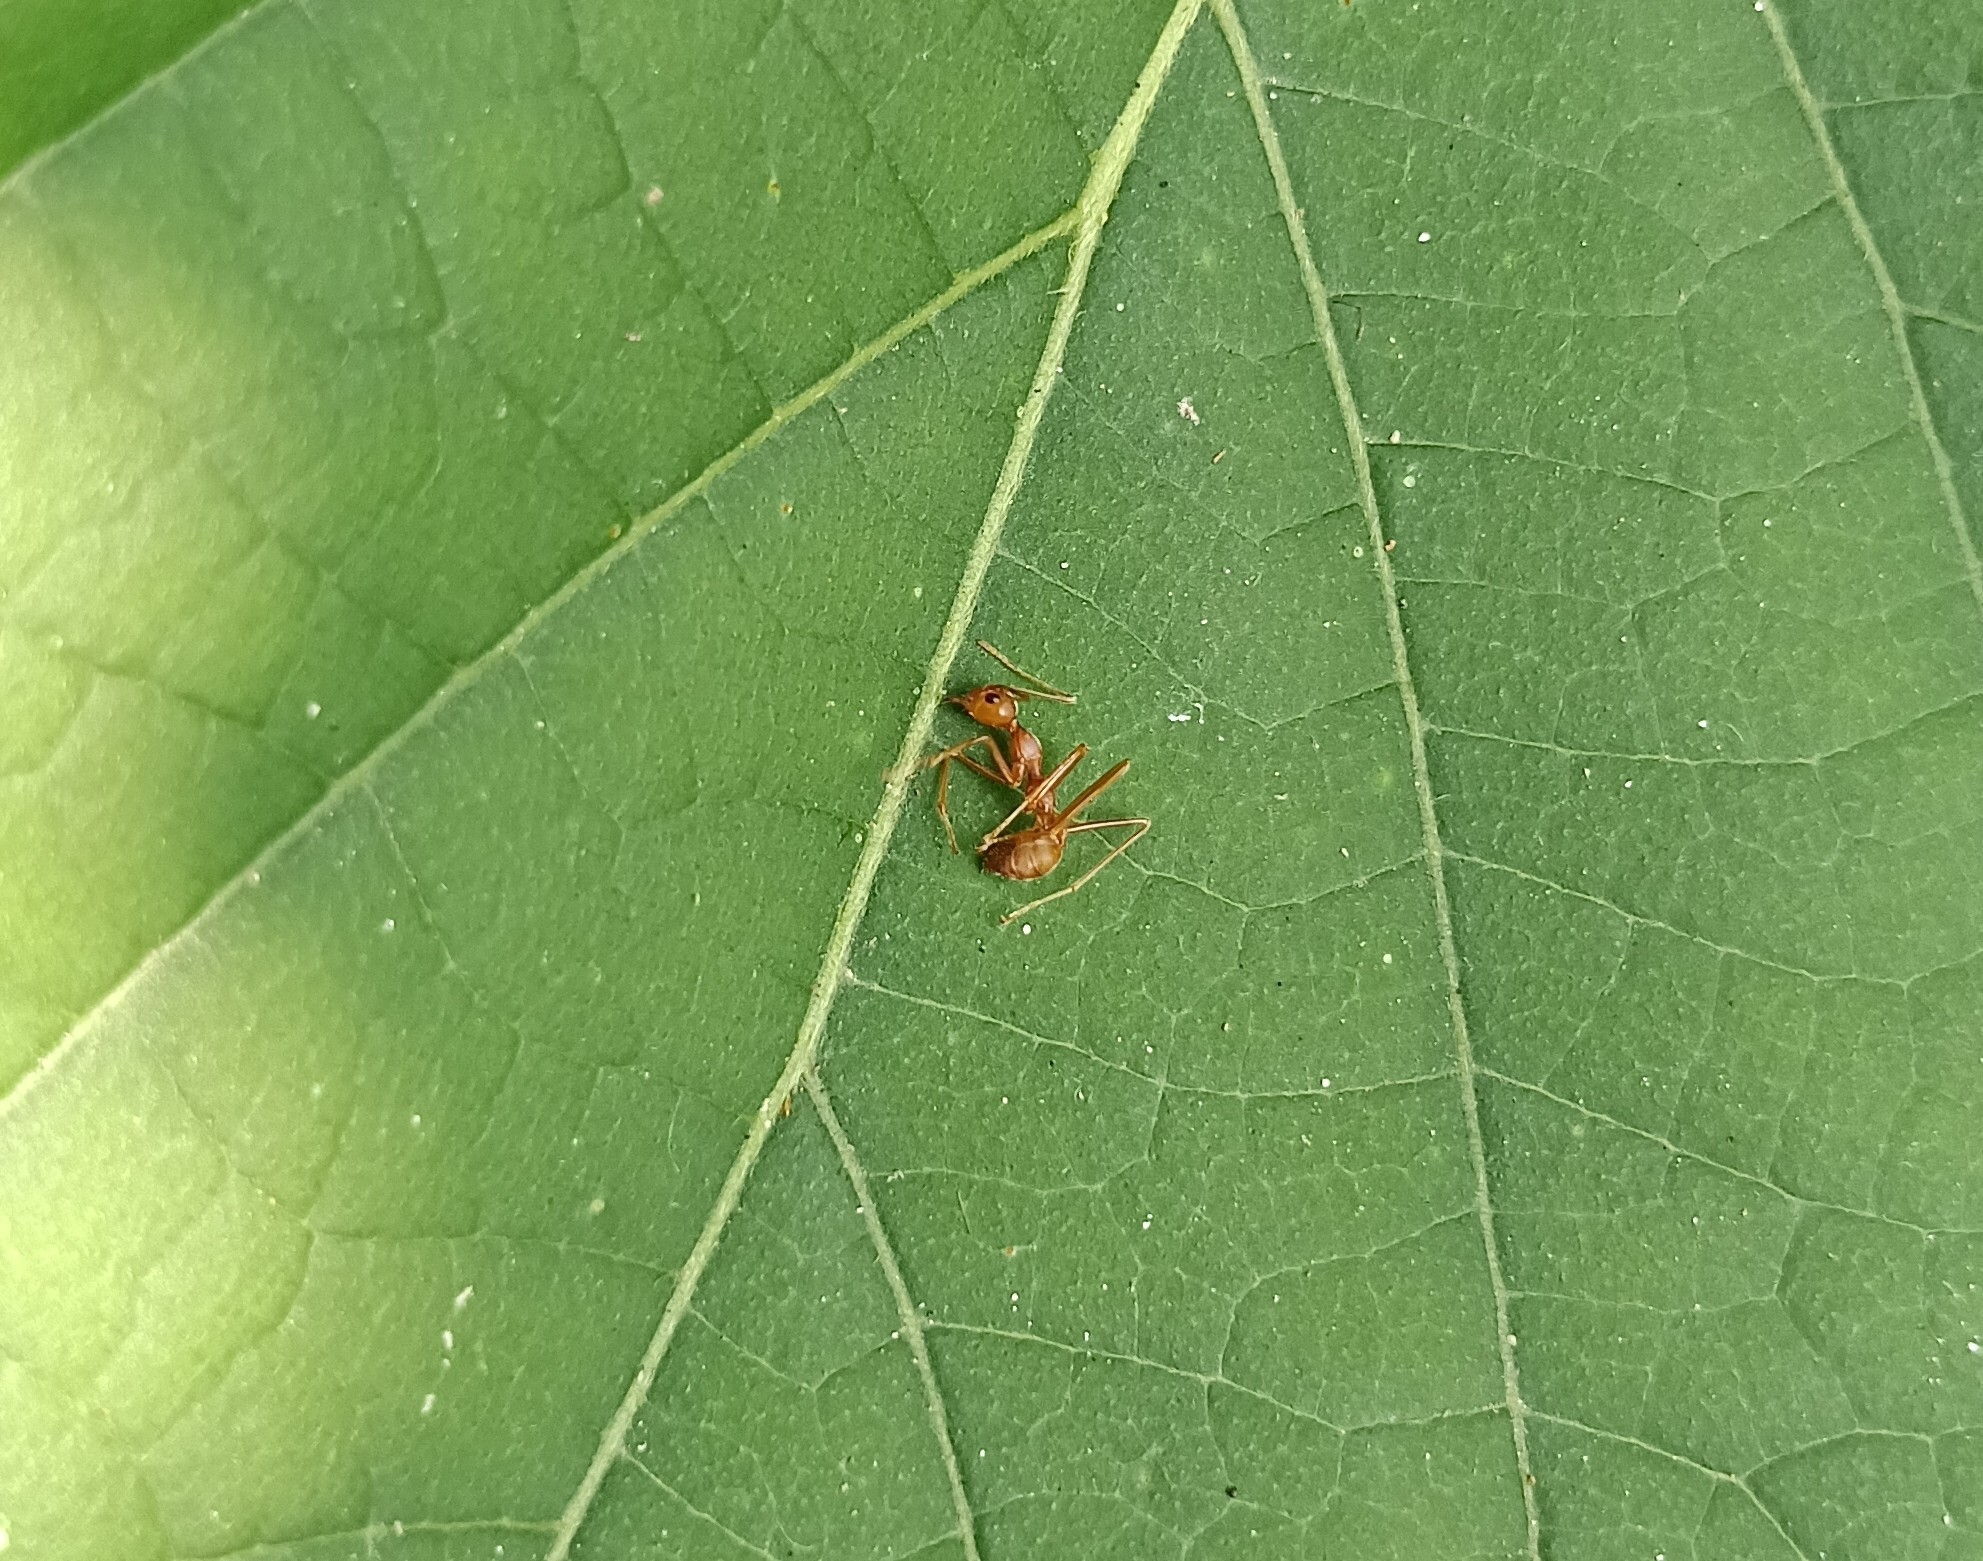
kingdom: Animalia
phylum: Arthropoda
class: Insecta
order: Hymenoptera
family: Formicidae
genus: Oecophylla
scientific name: Oecophylla smaragdina
